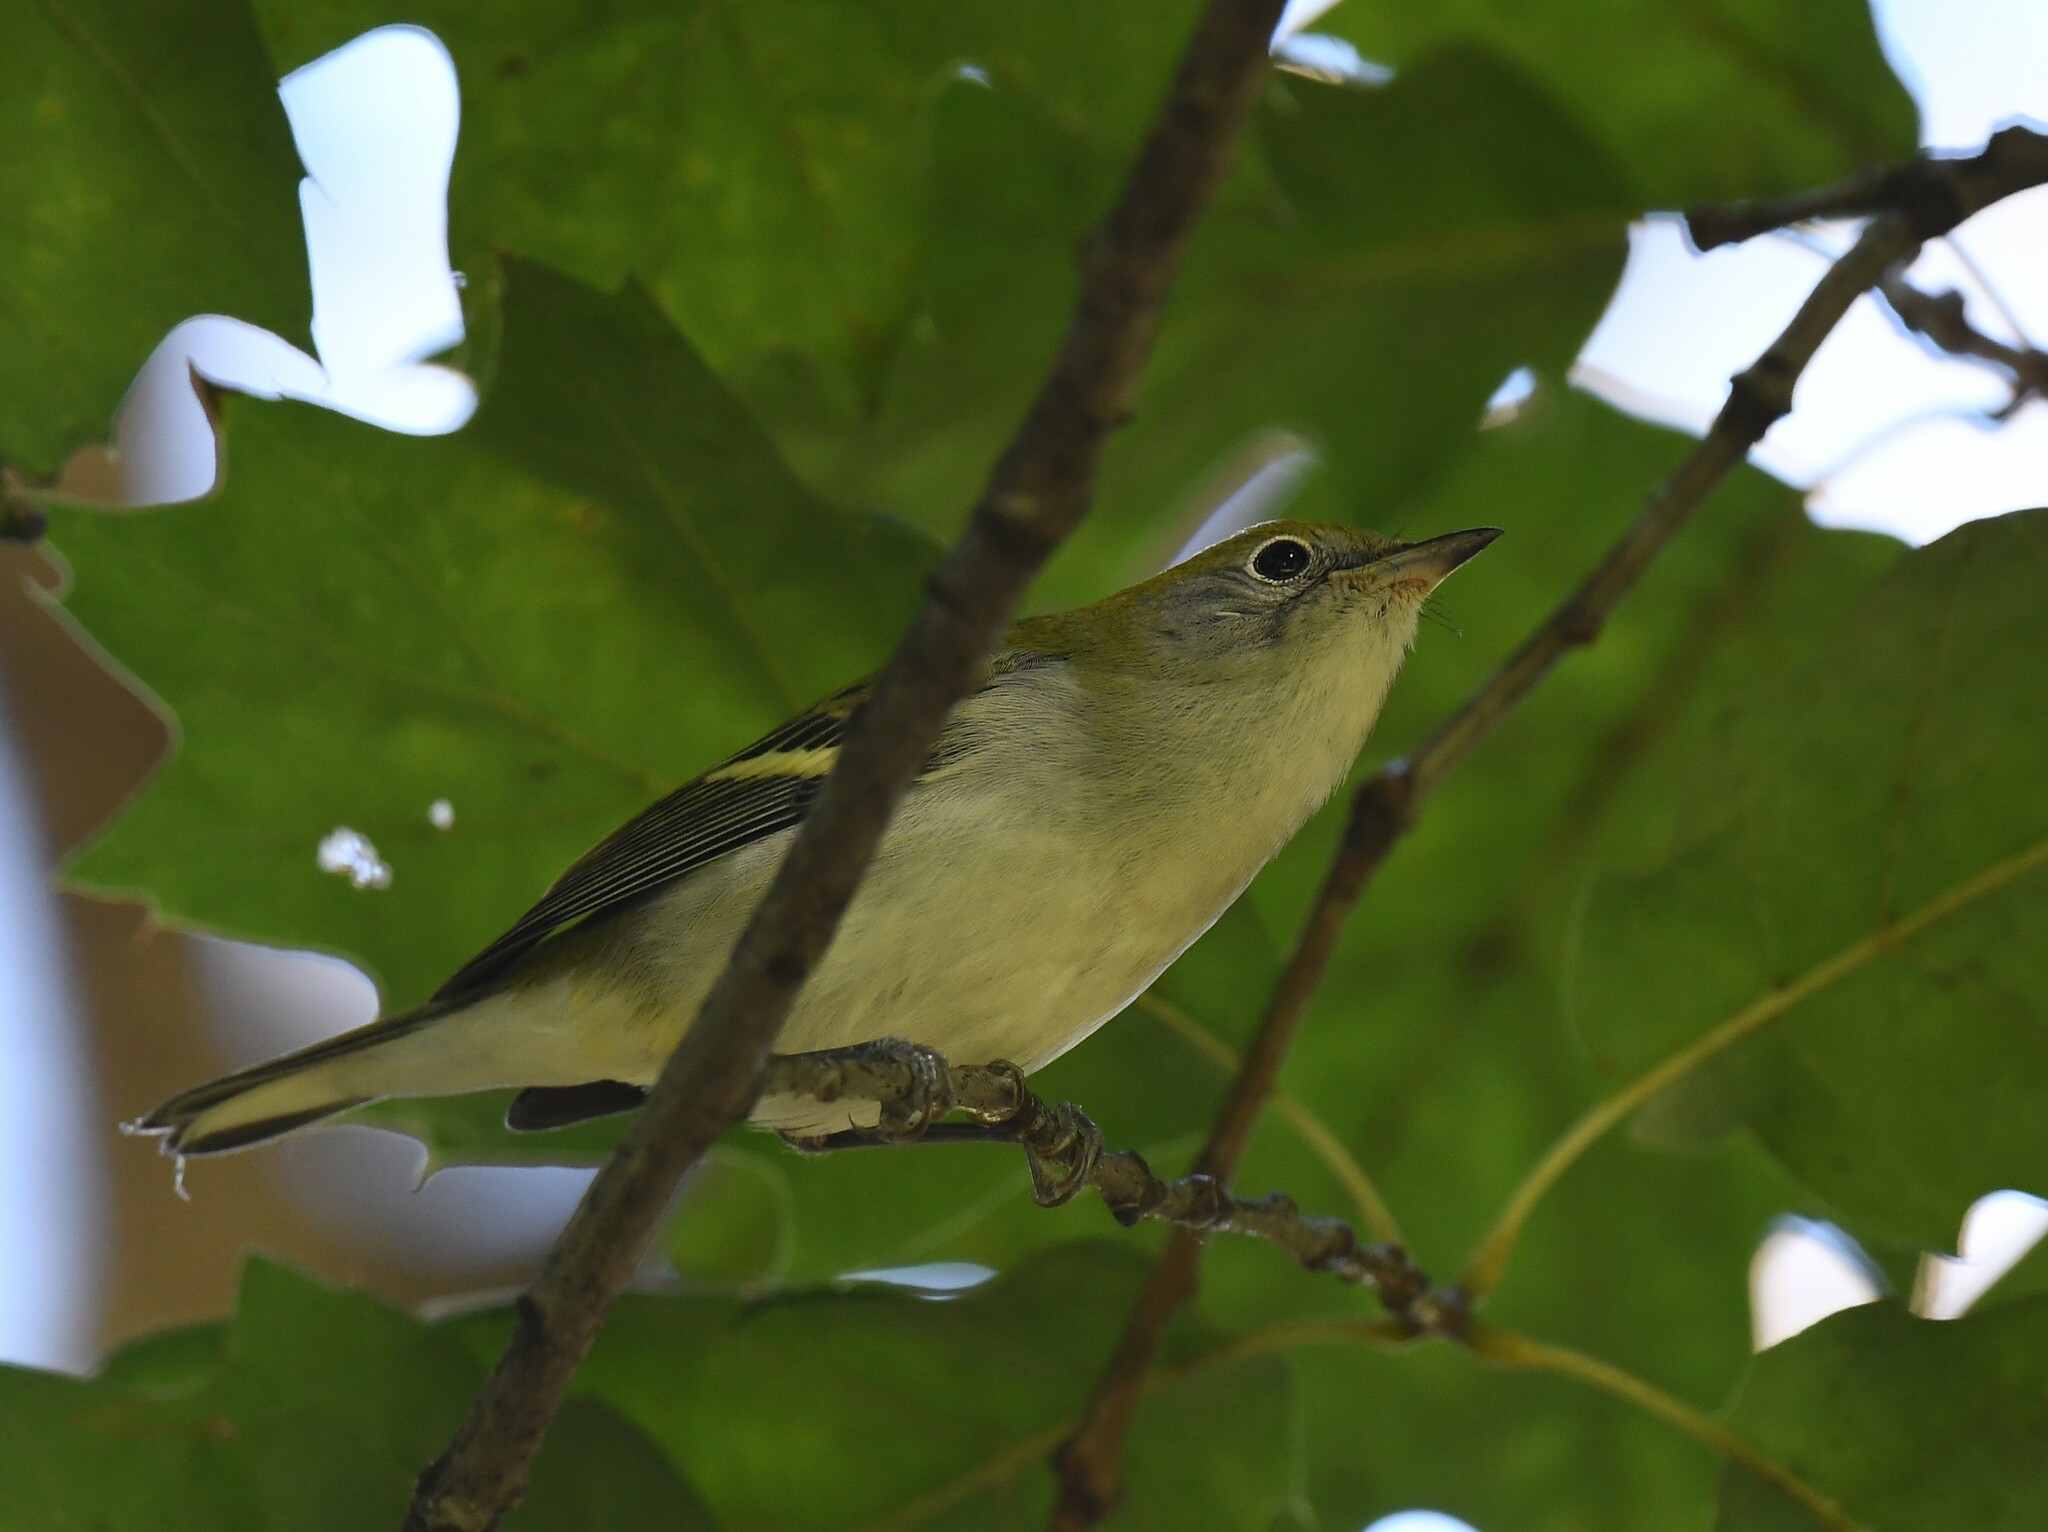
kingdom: Animalia
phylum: Chordata
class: Aves
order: Passeriformes
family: Parulidae
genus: Setophaga
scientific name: Setophaga pensylvanica
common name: Chestnut-sided warbler
